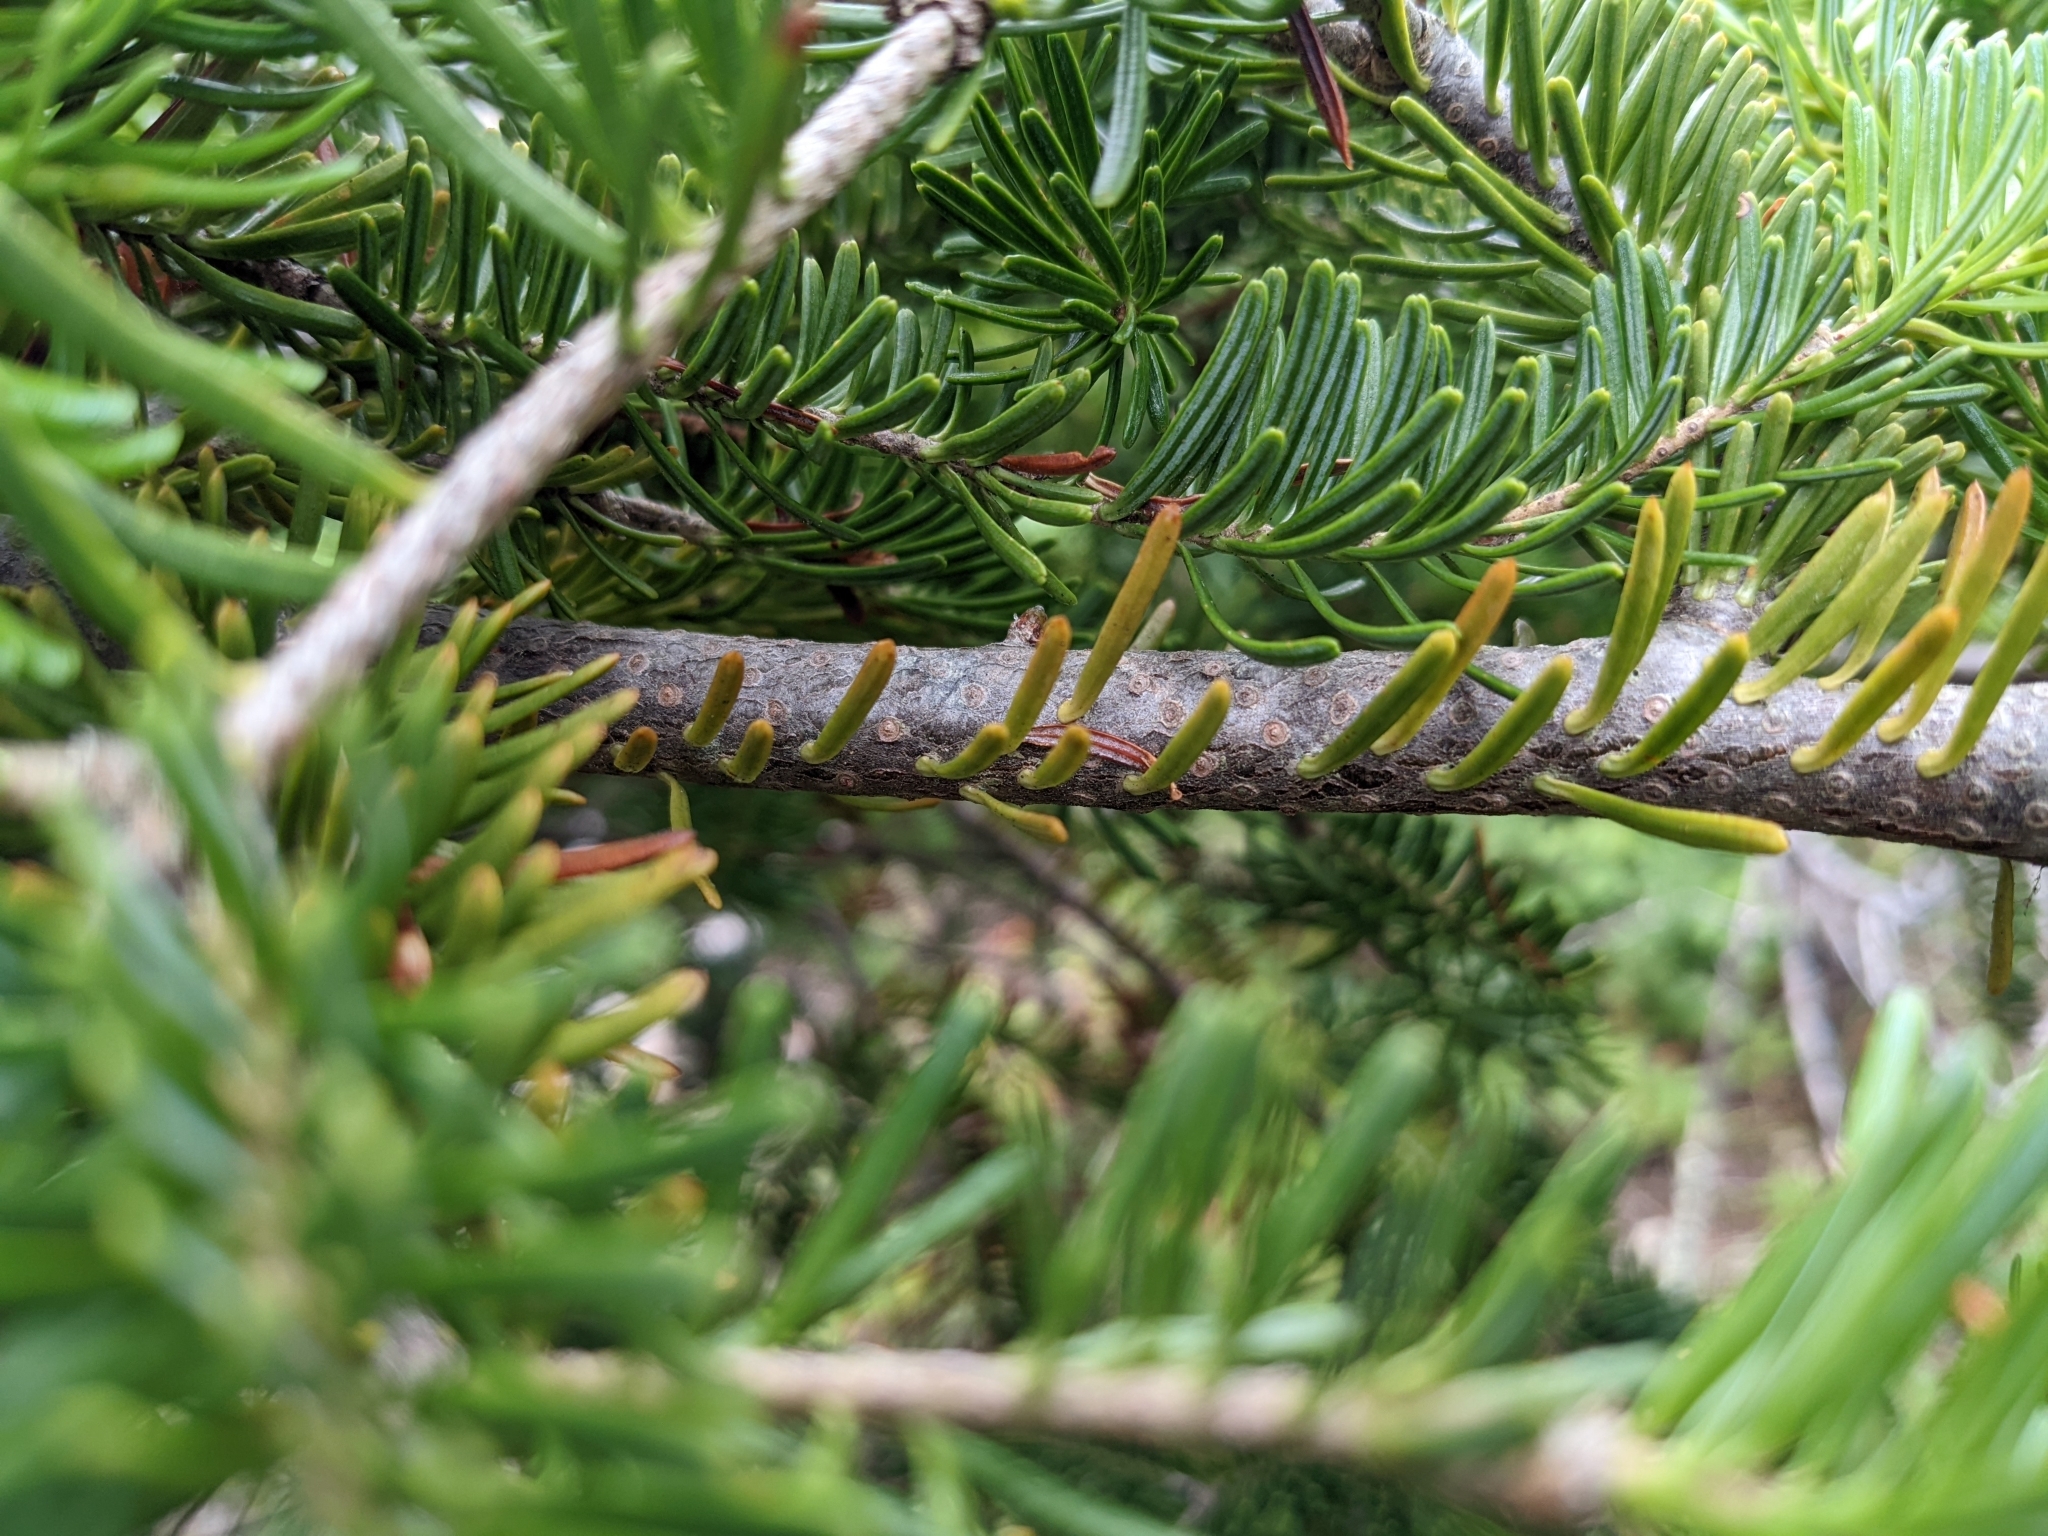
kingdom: Plantae
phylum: Tracheophyta
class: Pinopsida
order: Pinales
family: Pinaceae
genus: Abies
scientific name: Abies balsamea
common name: Balsam fir
